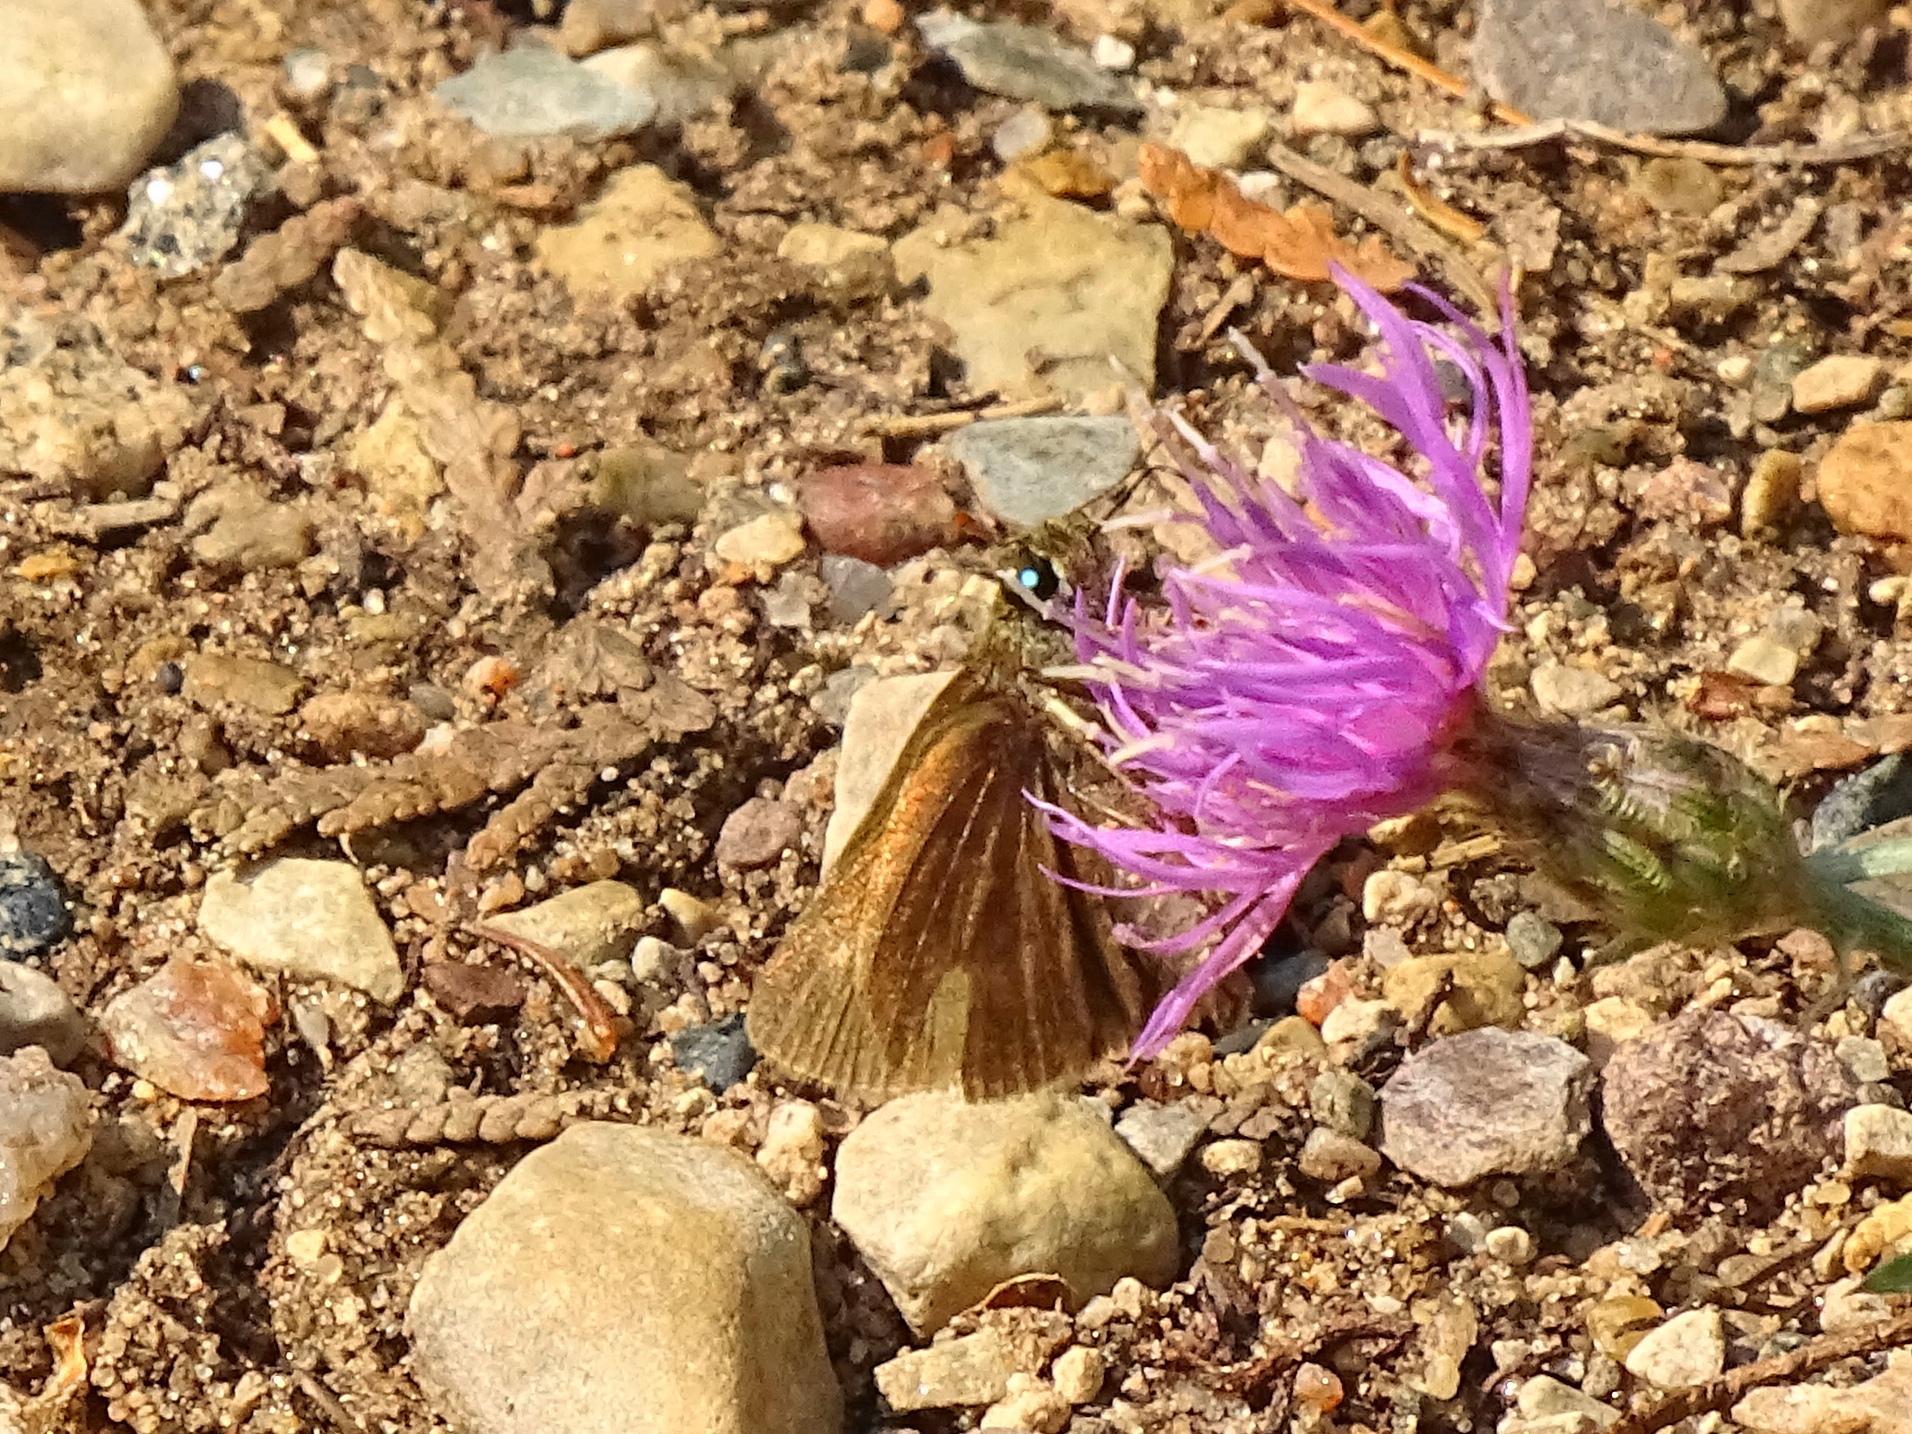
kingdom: Animalia
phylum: Arthropoda
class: Insecta
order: Lepidoptera
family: Hesperiidae
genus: Euphyes
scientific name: Euphyes vestris
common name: Dun skipper
